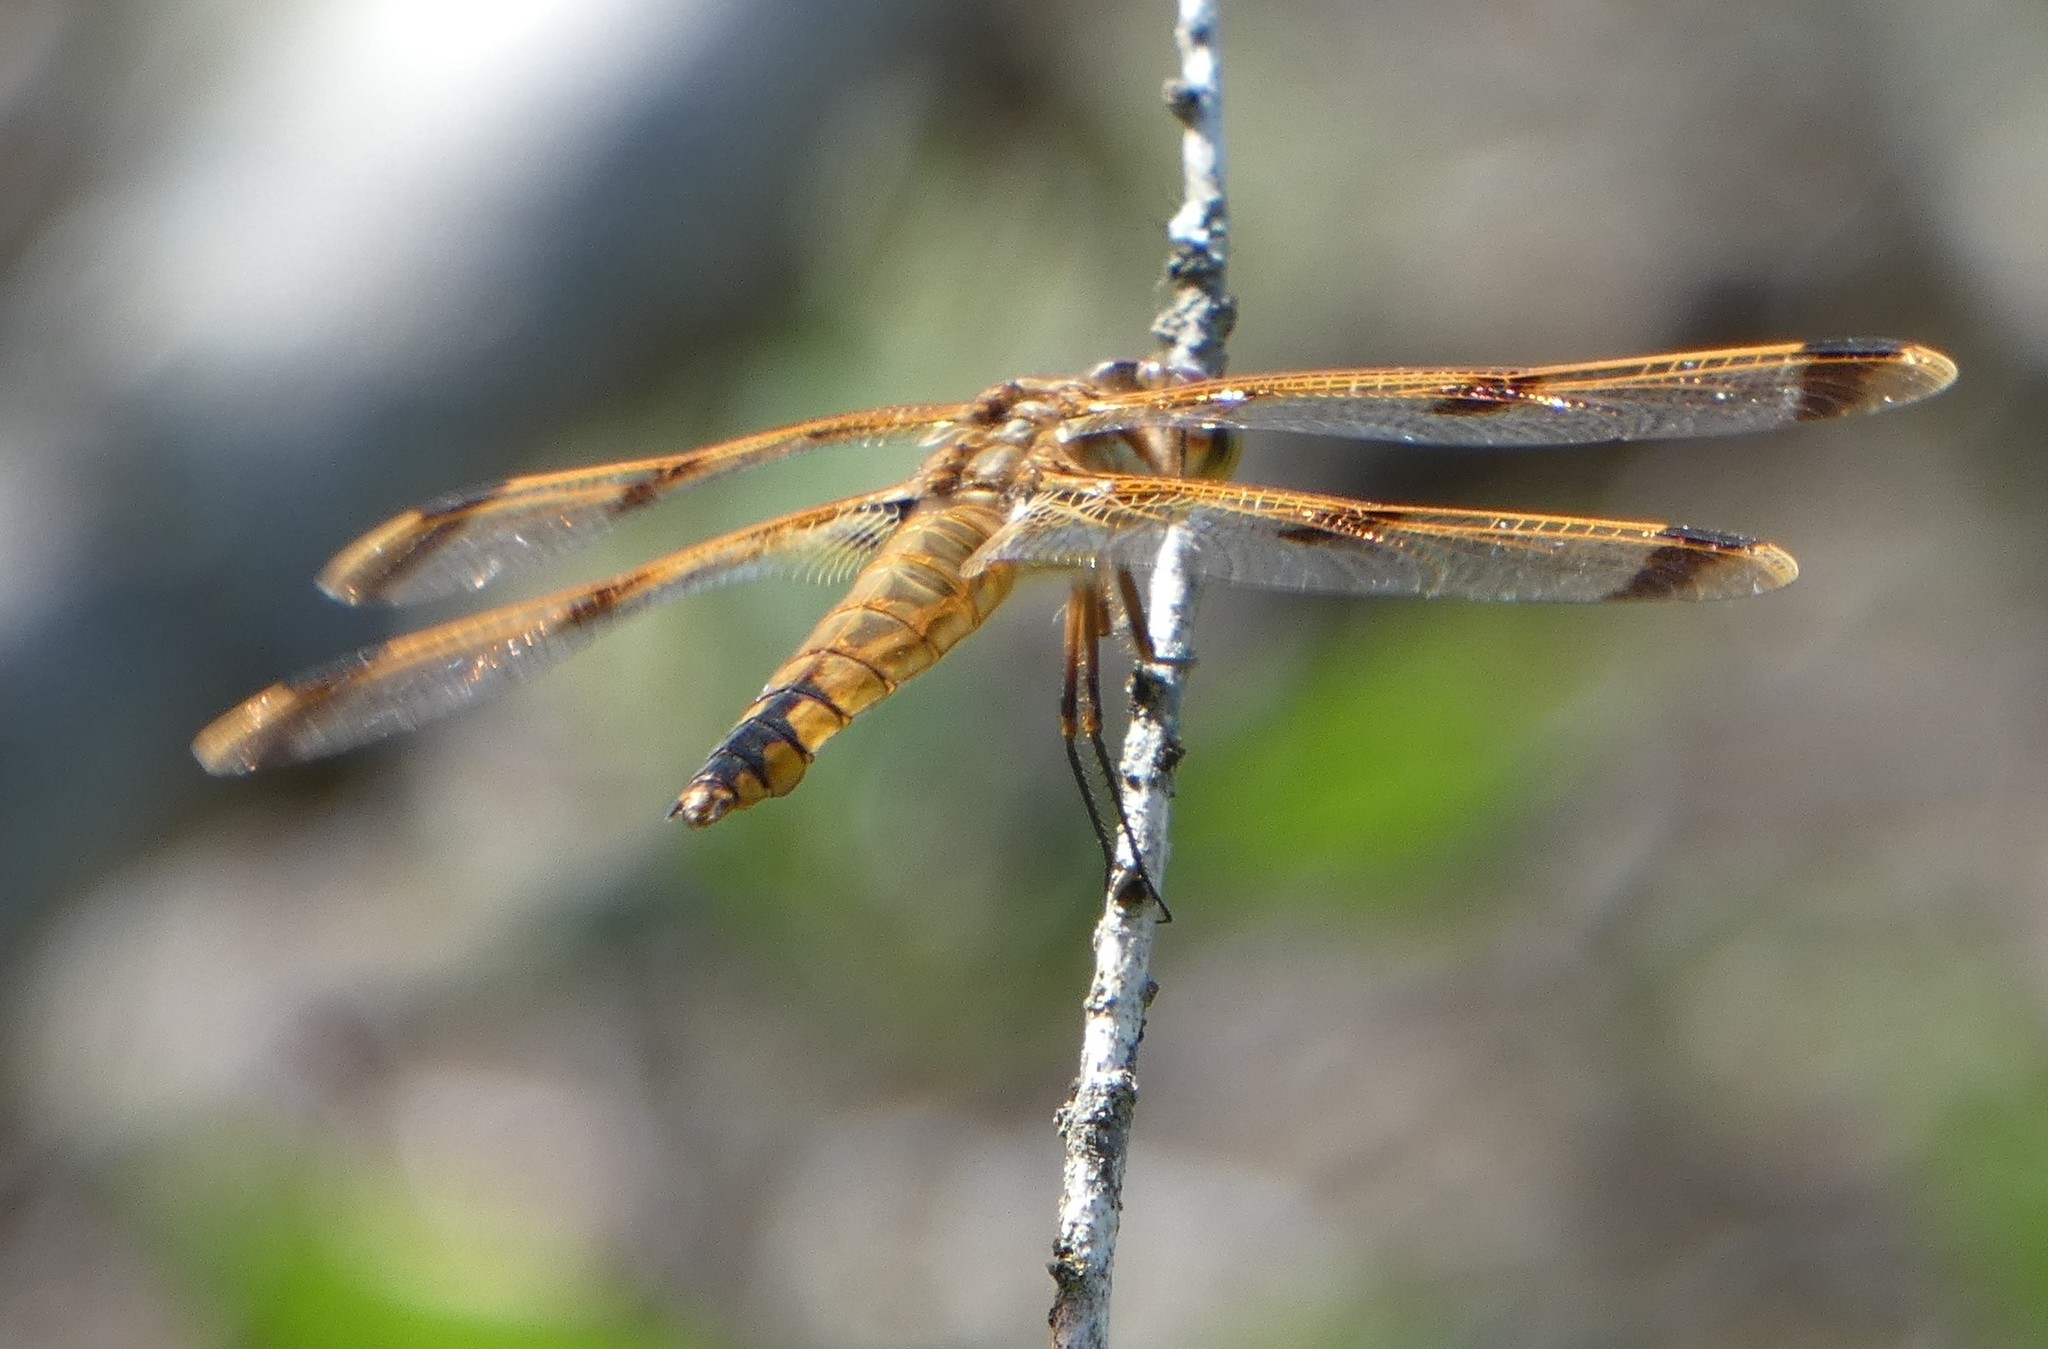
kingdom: Animalia
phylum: Arthropoda
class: Insecta
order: Odonata
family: Libellulidae
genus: Libellula
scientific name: Libellula semifasciata
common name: Painted skimmer
